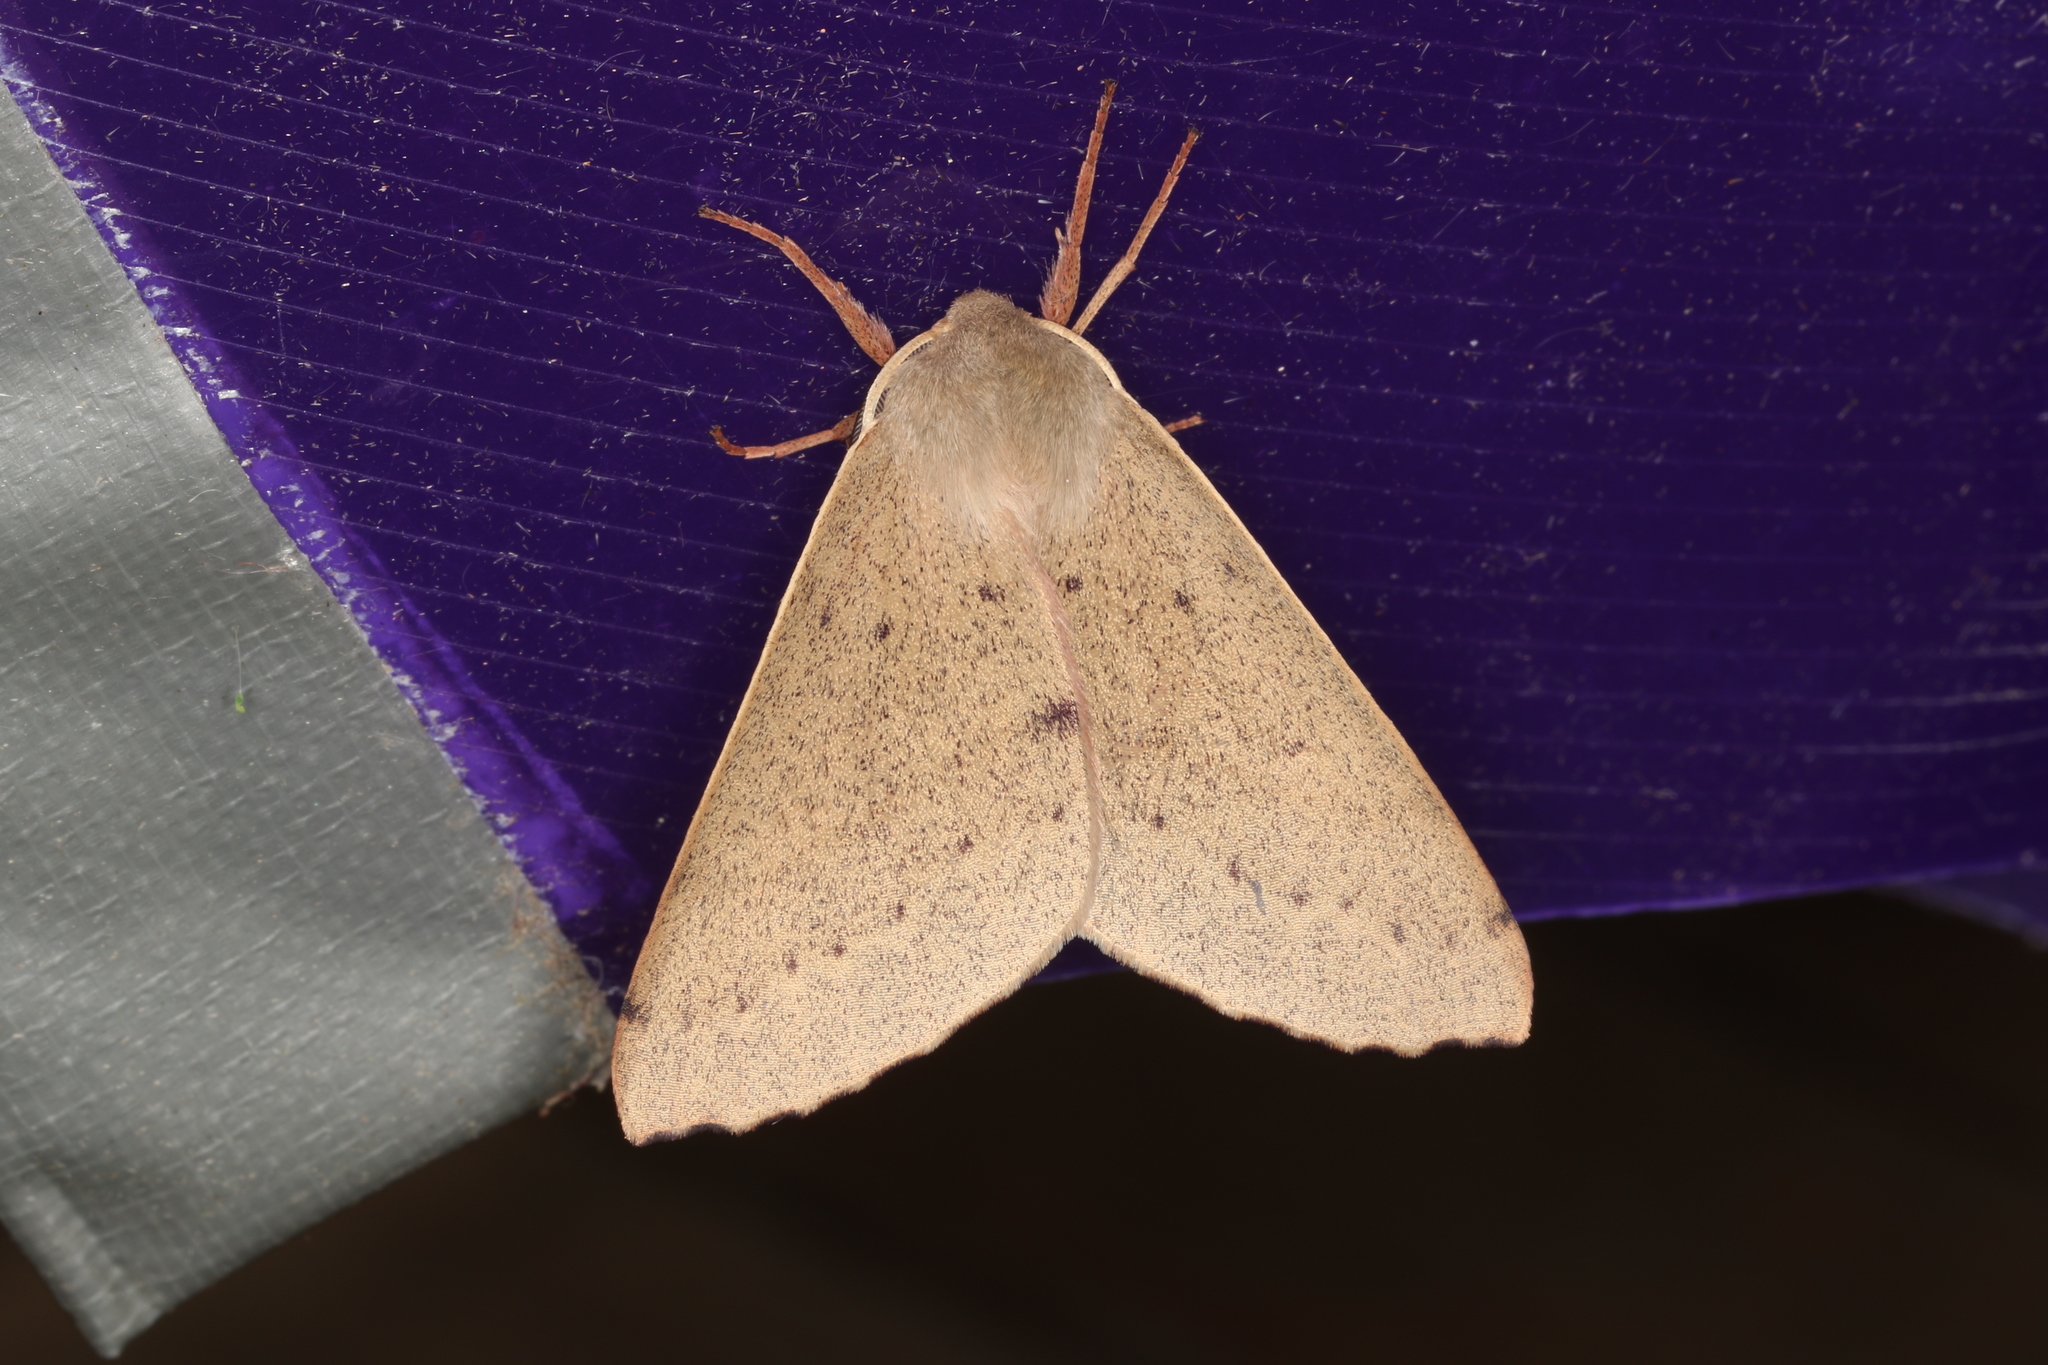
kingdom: Animalia
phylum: Arthropoda
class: Insecta
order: Lepidoptera
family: Geometridae
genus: Arhodia
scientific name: Arhodia lasiocamparia
